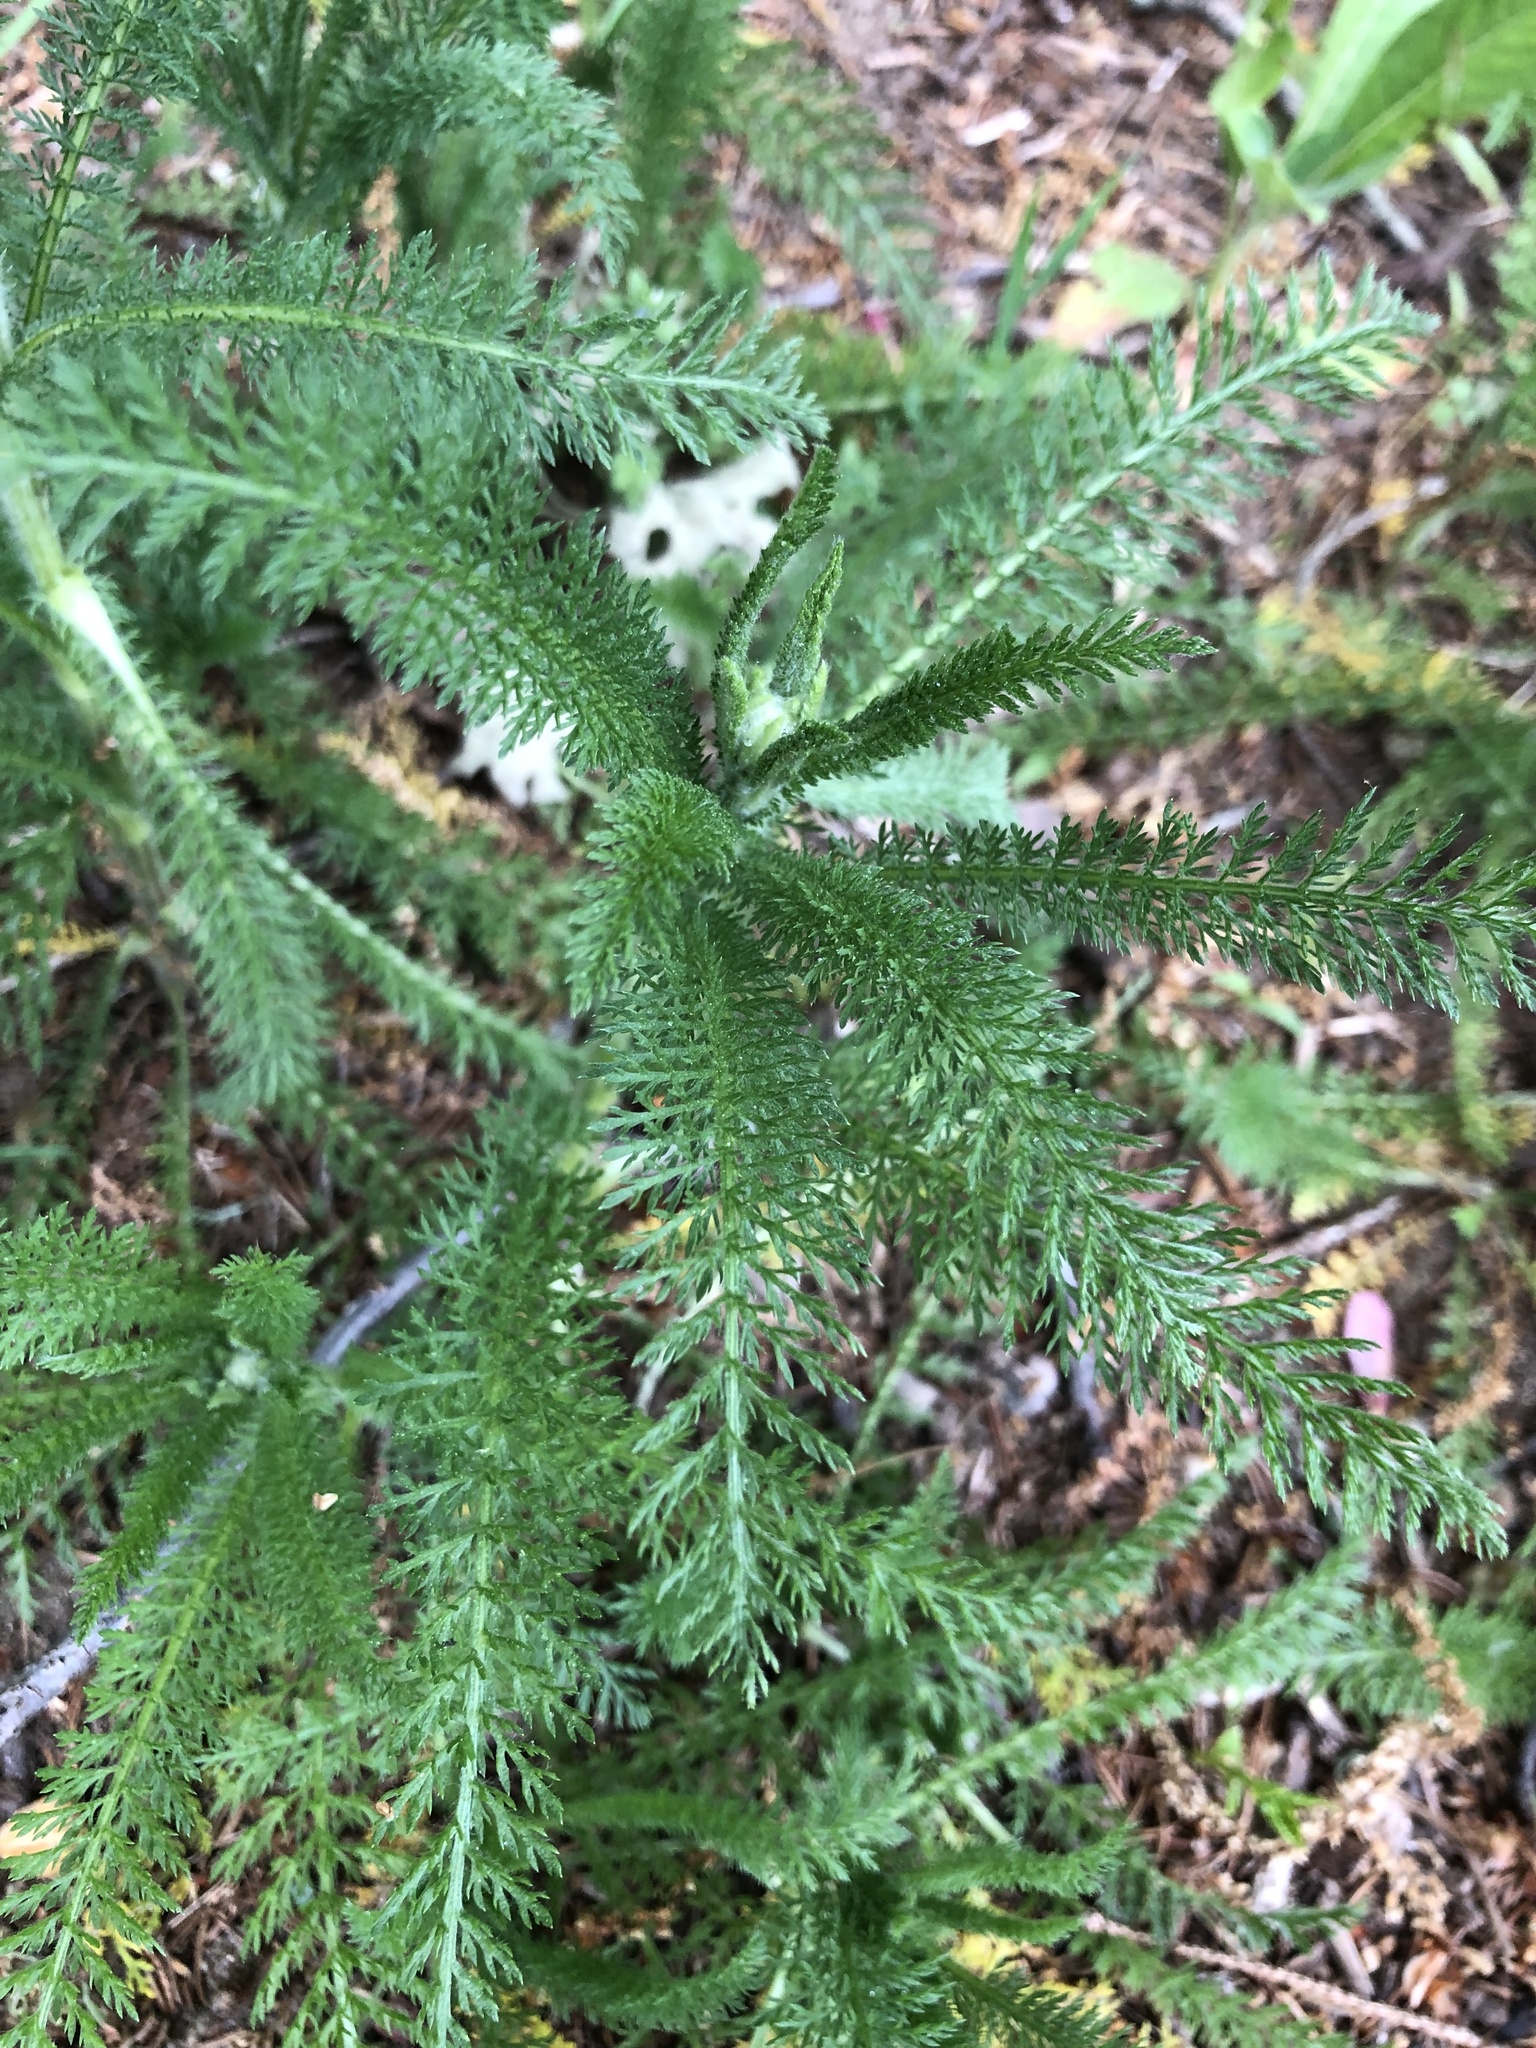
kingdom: Plantae
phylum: Tracheophyta
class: Magnoliopsida
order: Asterales
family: Asteraceae
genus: Achillea
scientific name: Achillea millefolium
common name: Yarrow
